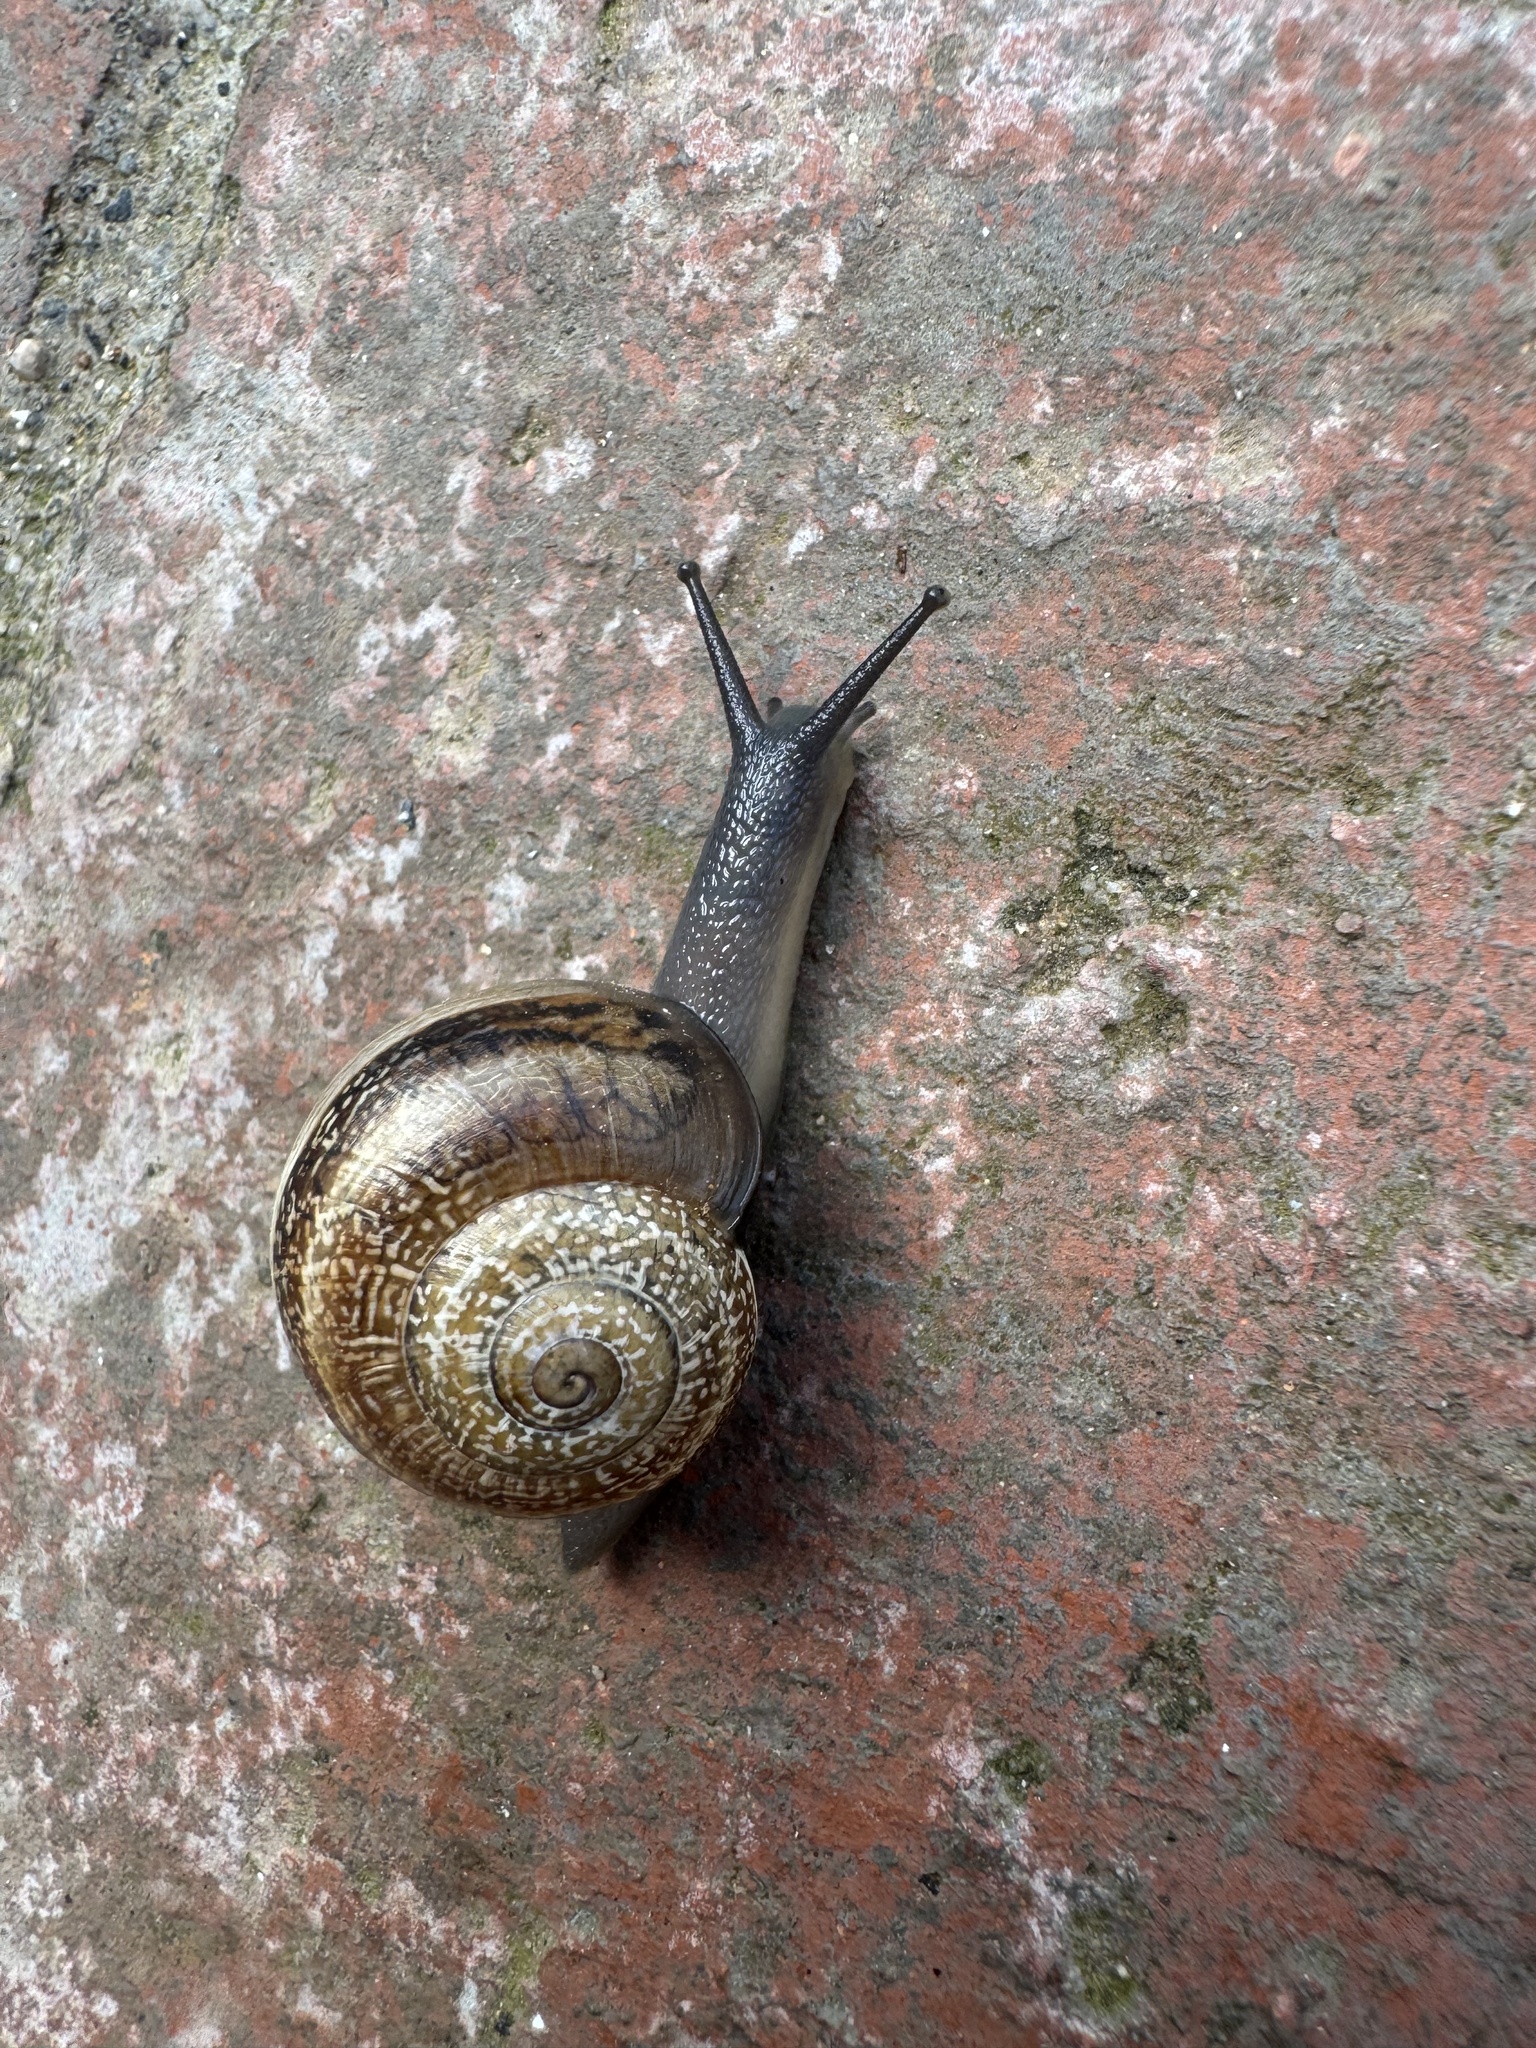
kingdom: Animalia
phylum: Mollusca
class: Gastropoda
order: Stylommatophora
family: Helicidae
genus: Otala
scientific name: Otala lactea
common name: Milk snail
